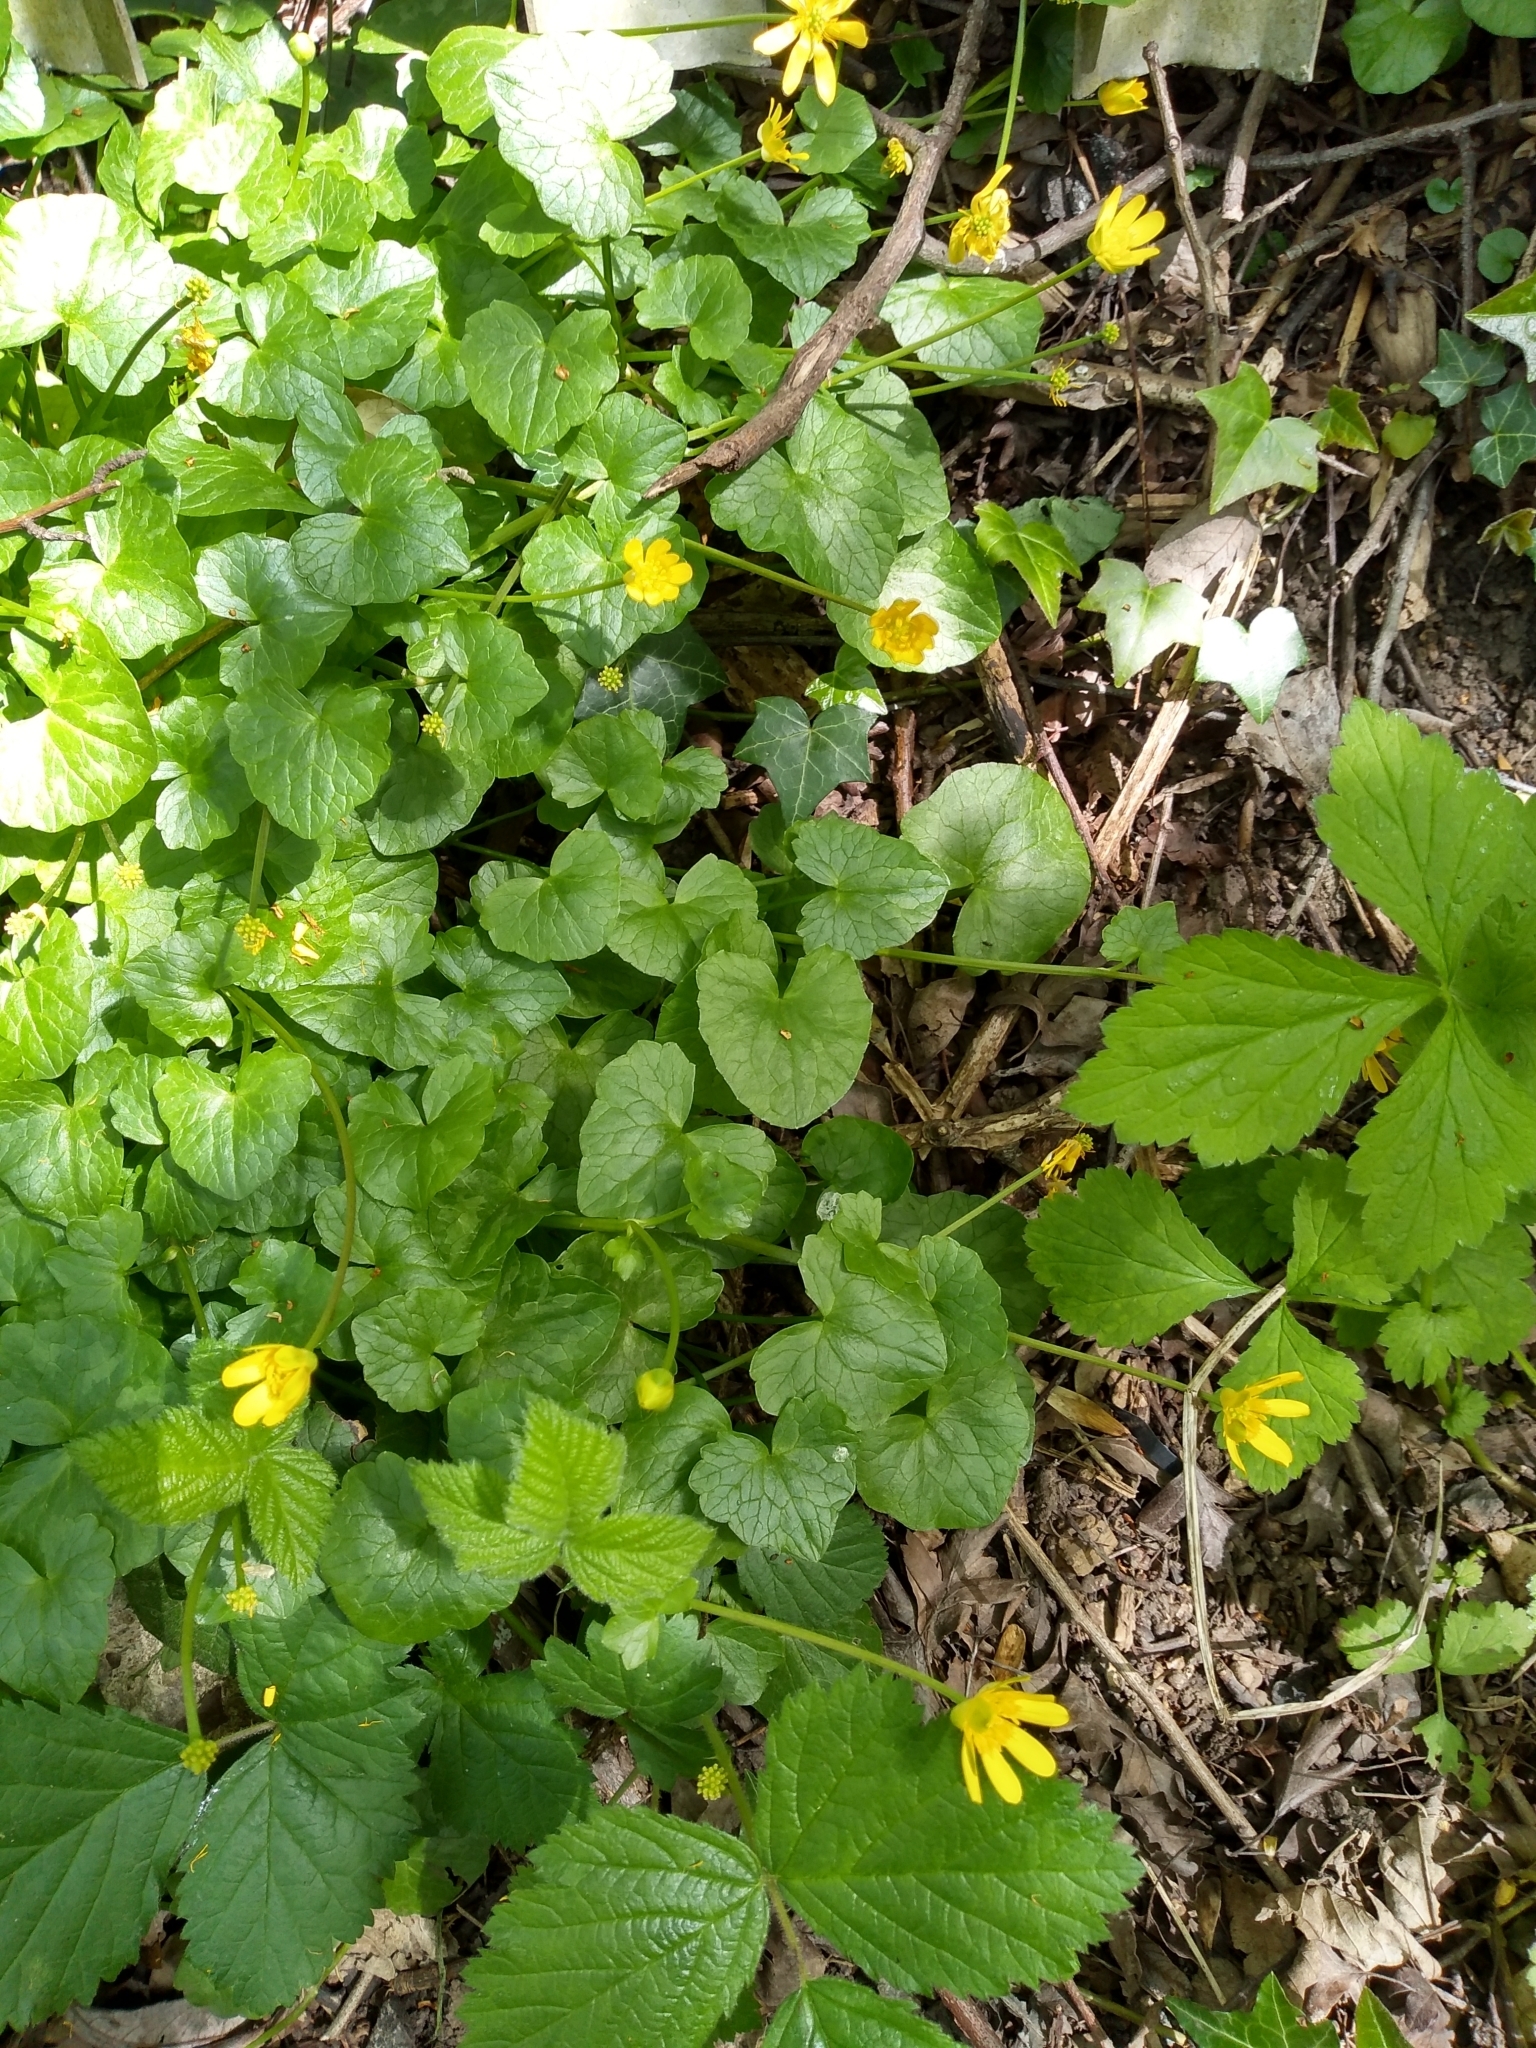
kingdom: Plantae
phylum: Tracheophyta
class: Magnoliopsida
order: Ranunculales
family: Ranunculaceae
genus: Ficaria
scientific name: Ficaria verna
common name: Lesser celandine
